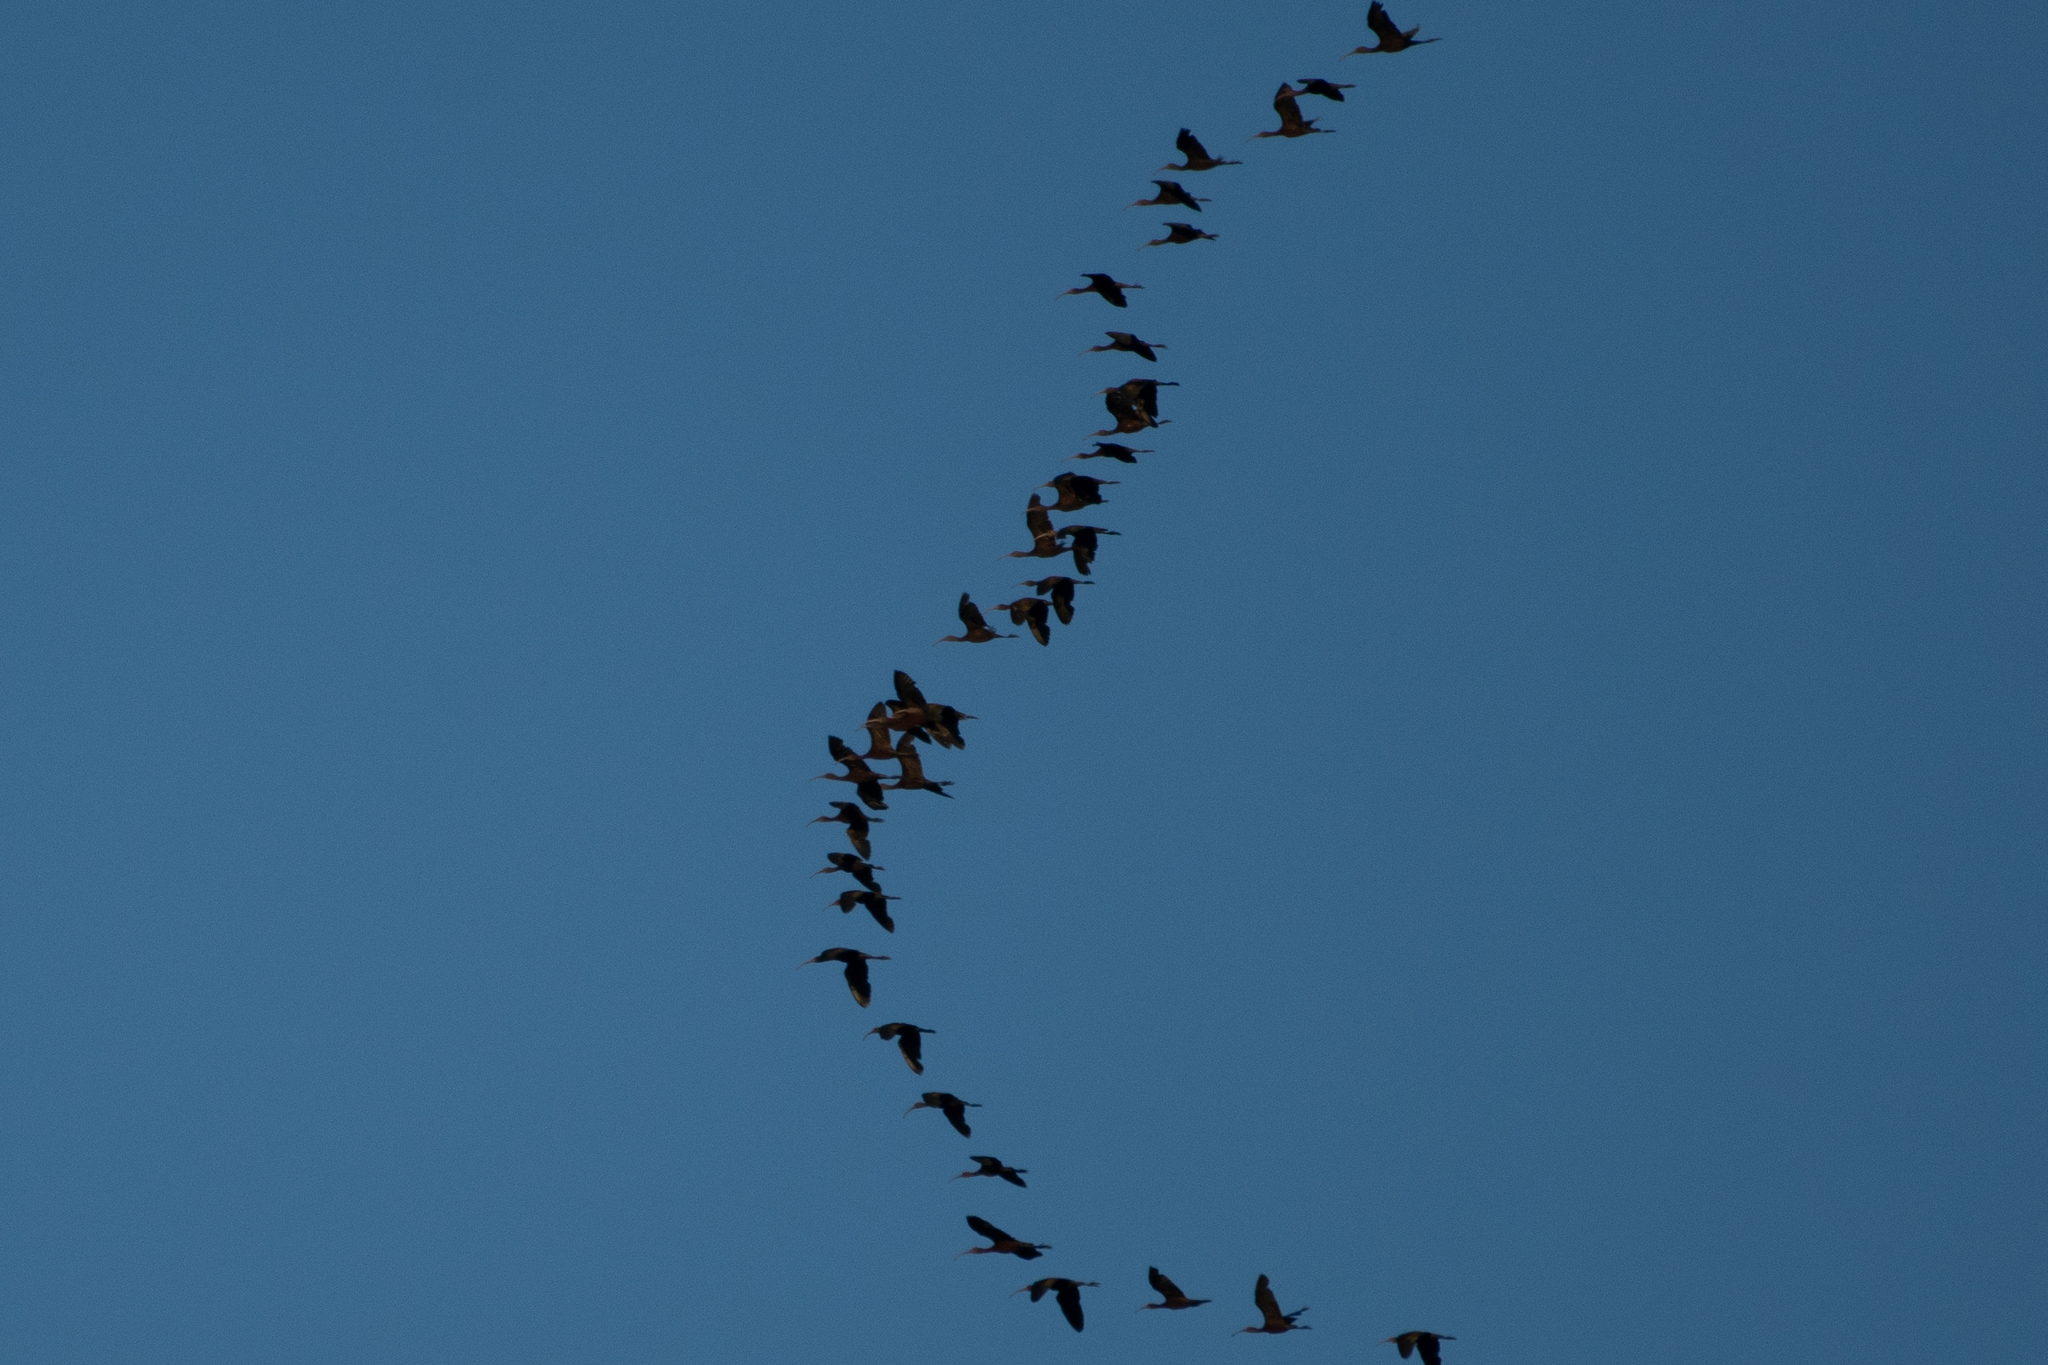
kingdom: Animalia
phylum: Chordata
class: Aves
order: Pelecaniformes
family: Threskiornithidae
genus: Plegadis
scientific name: Plegadis chihi
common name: White-faced ibis
